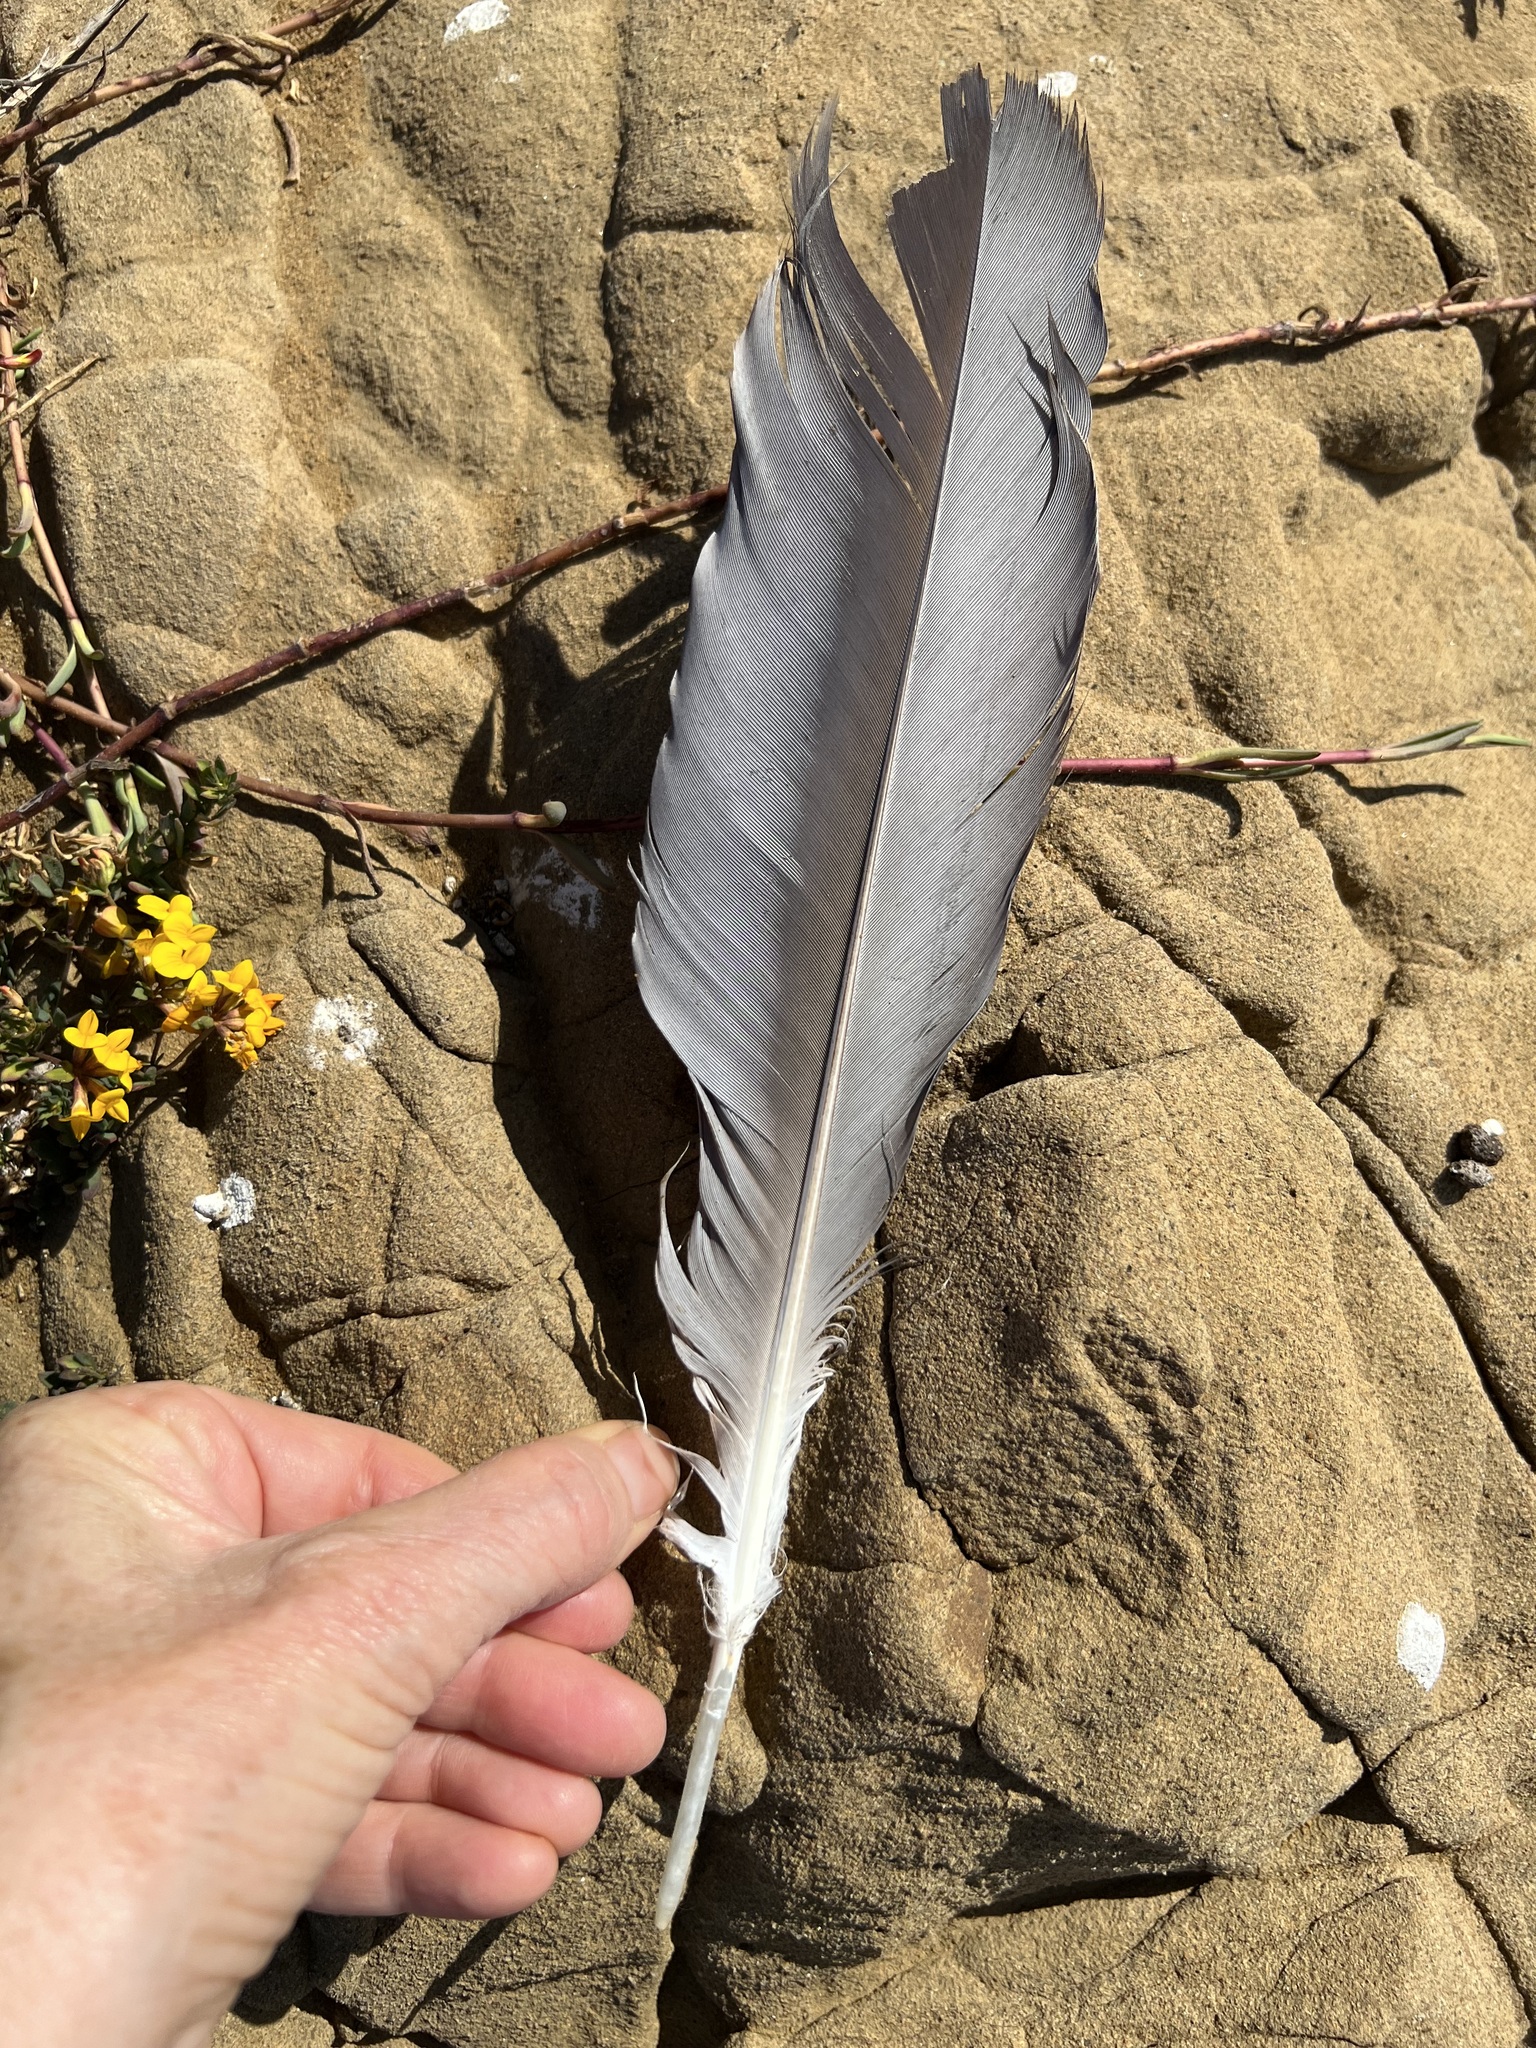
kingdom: Animalia
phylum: Chordata
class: Aves
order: Pelecaniformes
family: Ardeidae
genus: Ardea
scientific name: Ardea herodias
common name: Great blue heron
